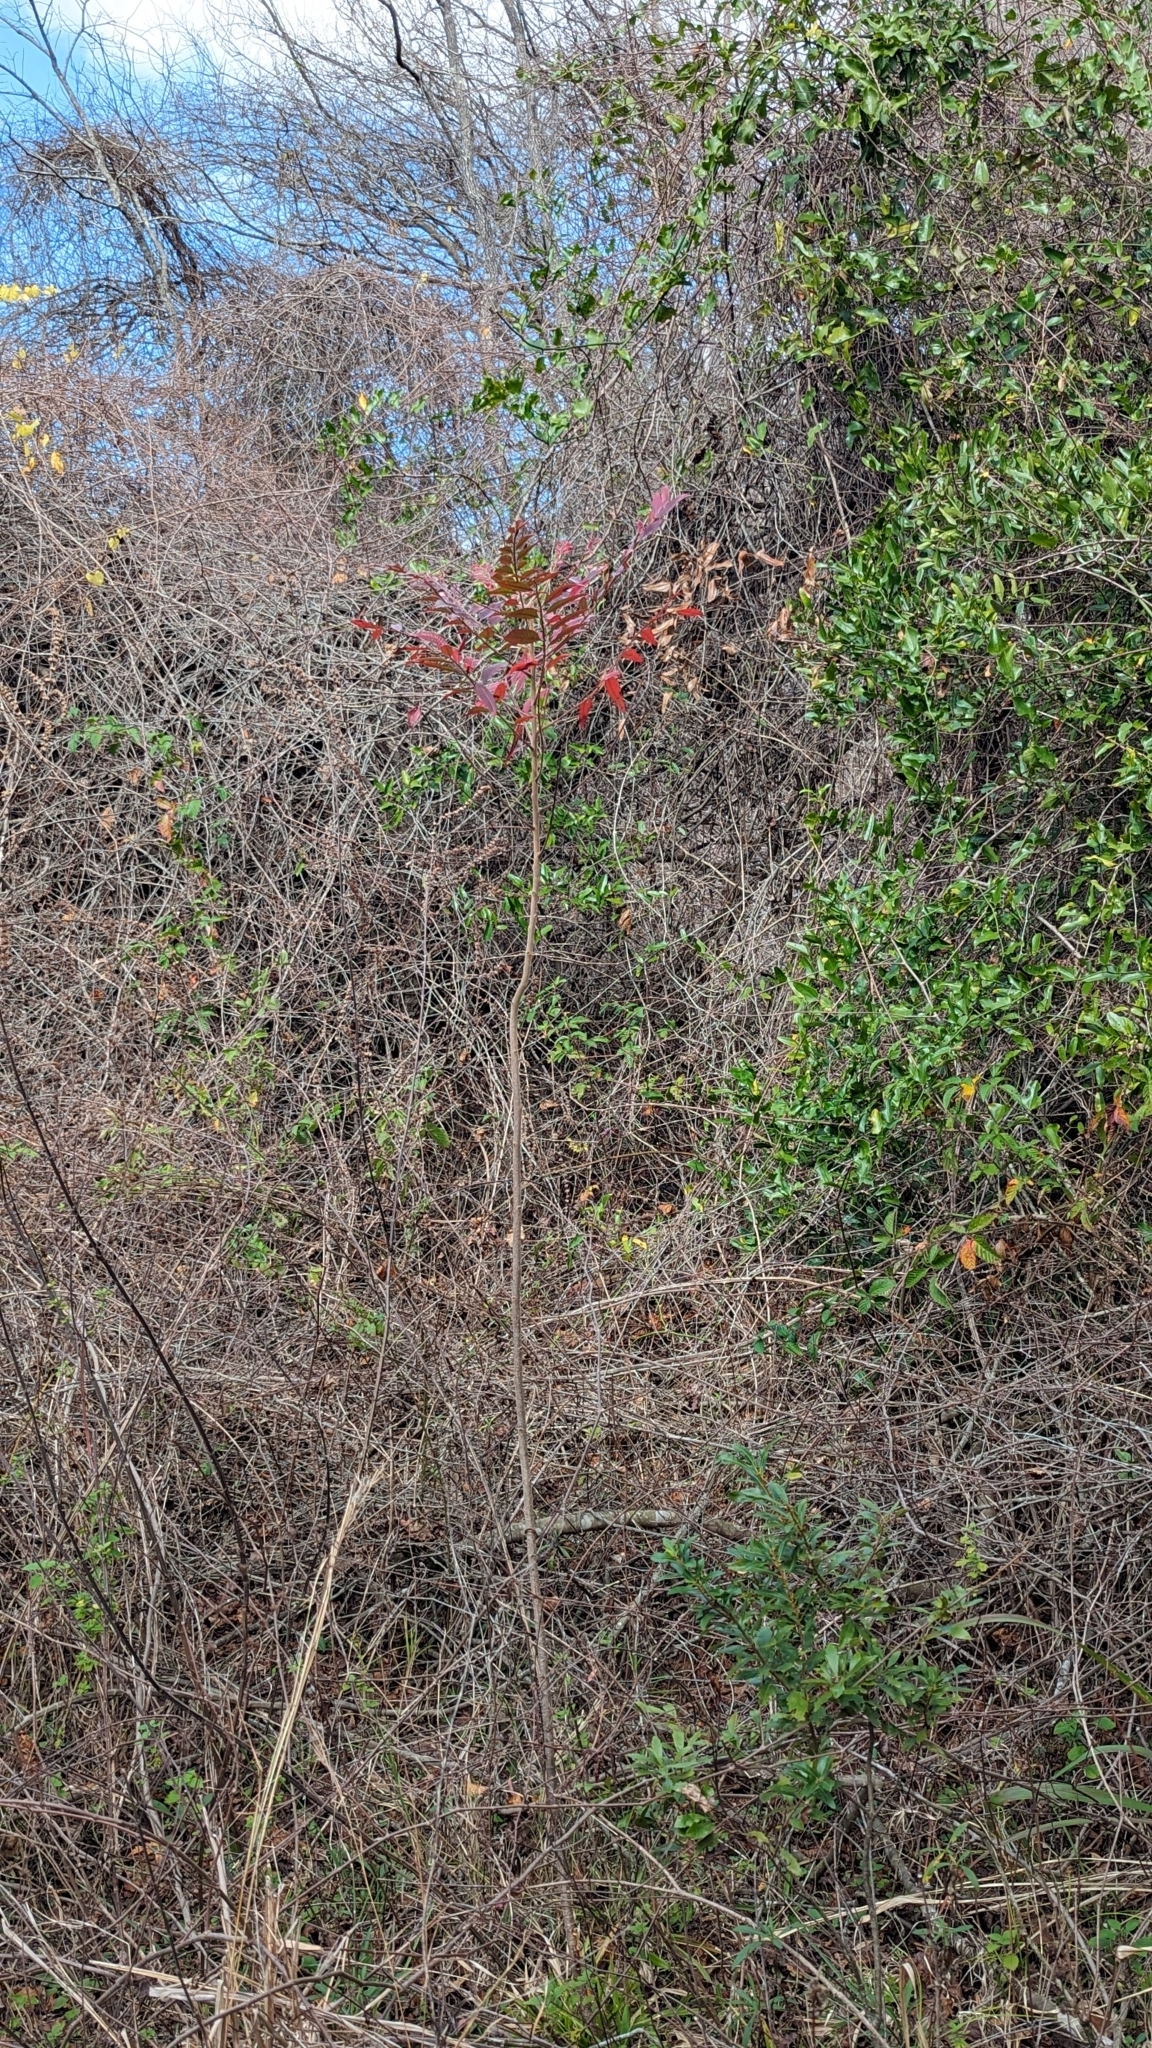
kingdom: Plantae
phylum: Tracheophyta
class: Magnoliopsida
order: Sapindales
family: Anacardiaceae
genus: Rhus
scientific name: Rhus copallina
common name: Shining sumac
